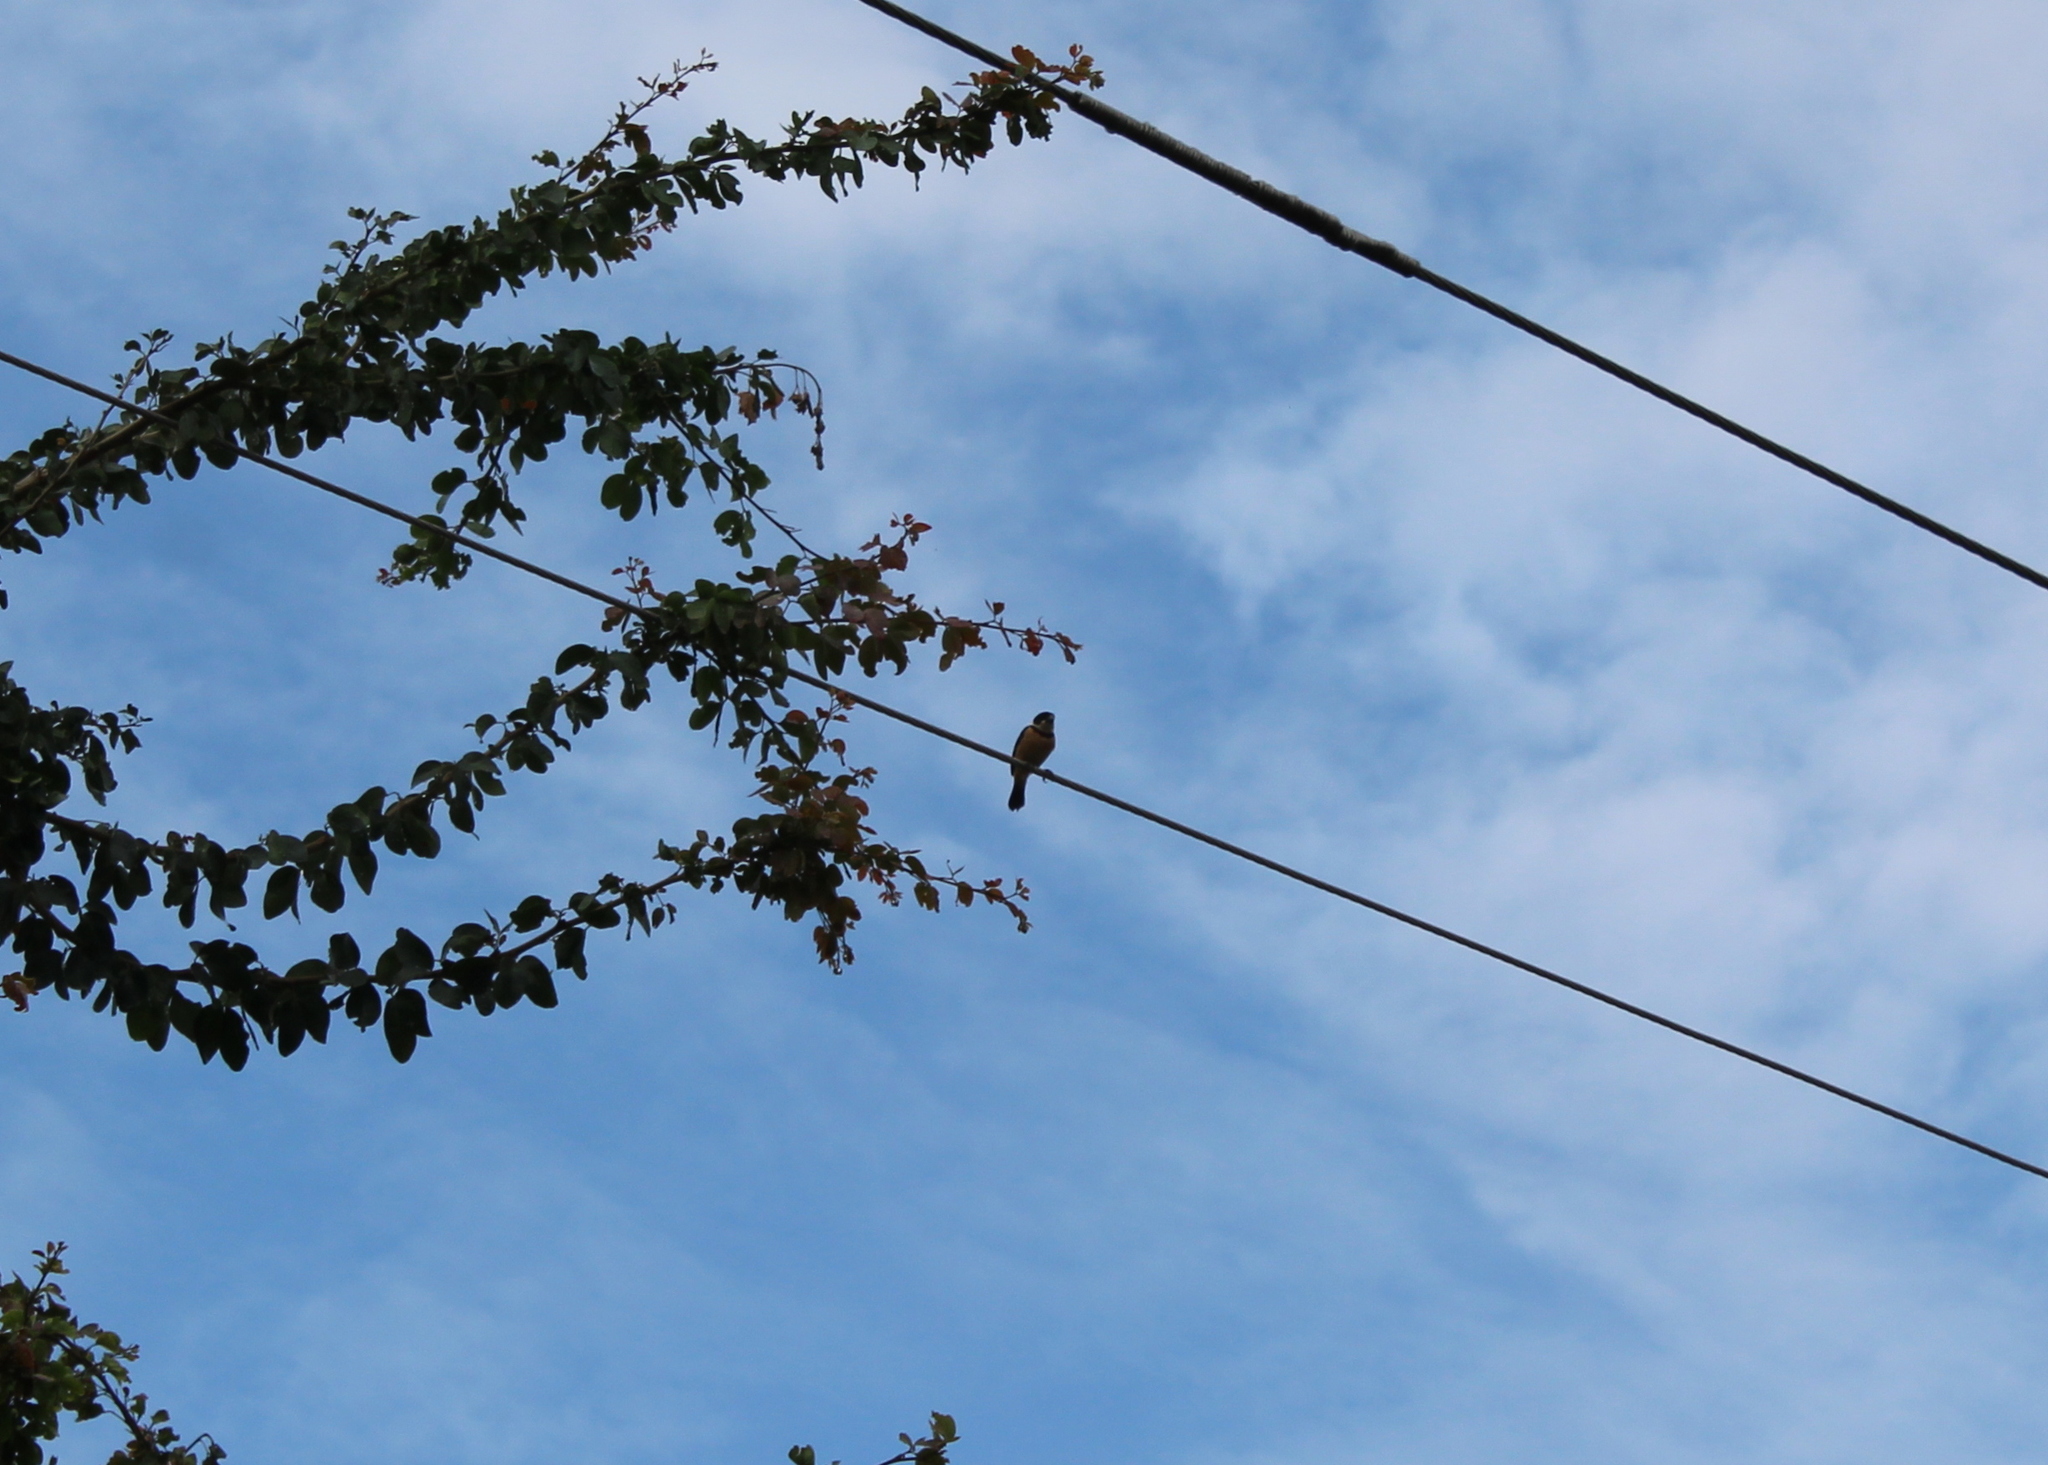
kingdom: Animalia
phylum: Chordata
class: Aves
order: Passeriformes
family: Thraupidae
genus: Sporophila
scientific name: Sporophila torqueola
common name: White-collared seedeater
